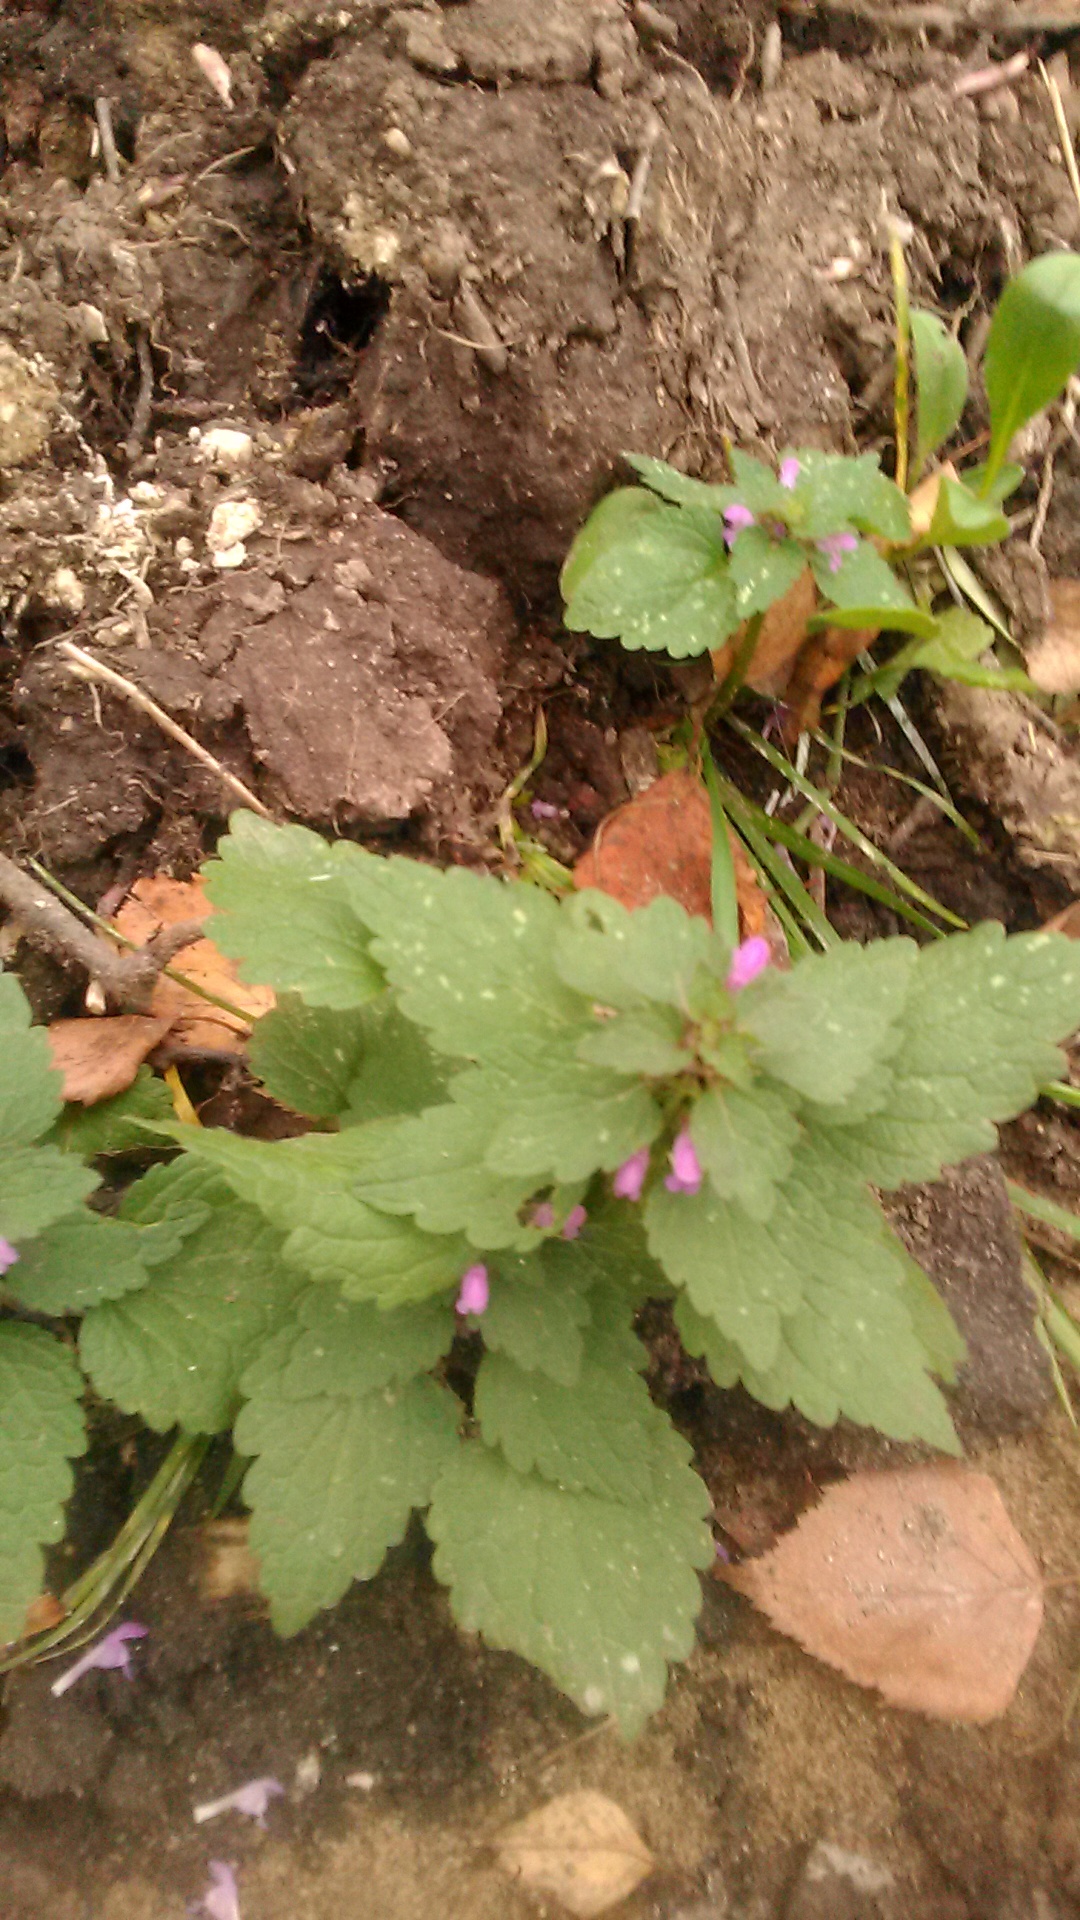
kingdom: Plantae
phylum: Tracheophyta
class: Magnoliopsida
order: Lamiales
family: Lamiaceae
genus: Lamium
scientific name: Lamium purpureum
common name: Red dead-nettle
